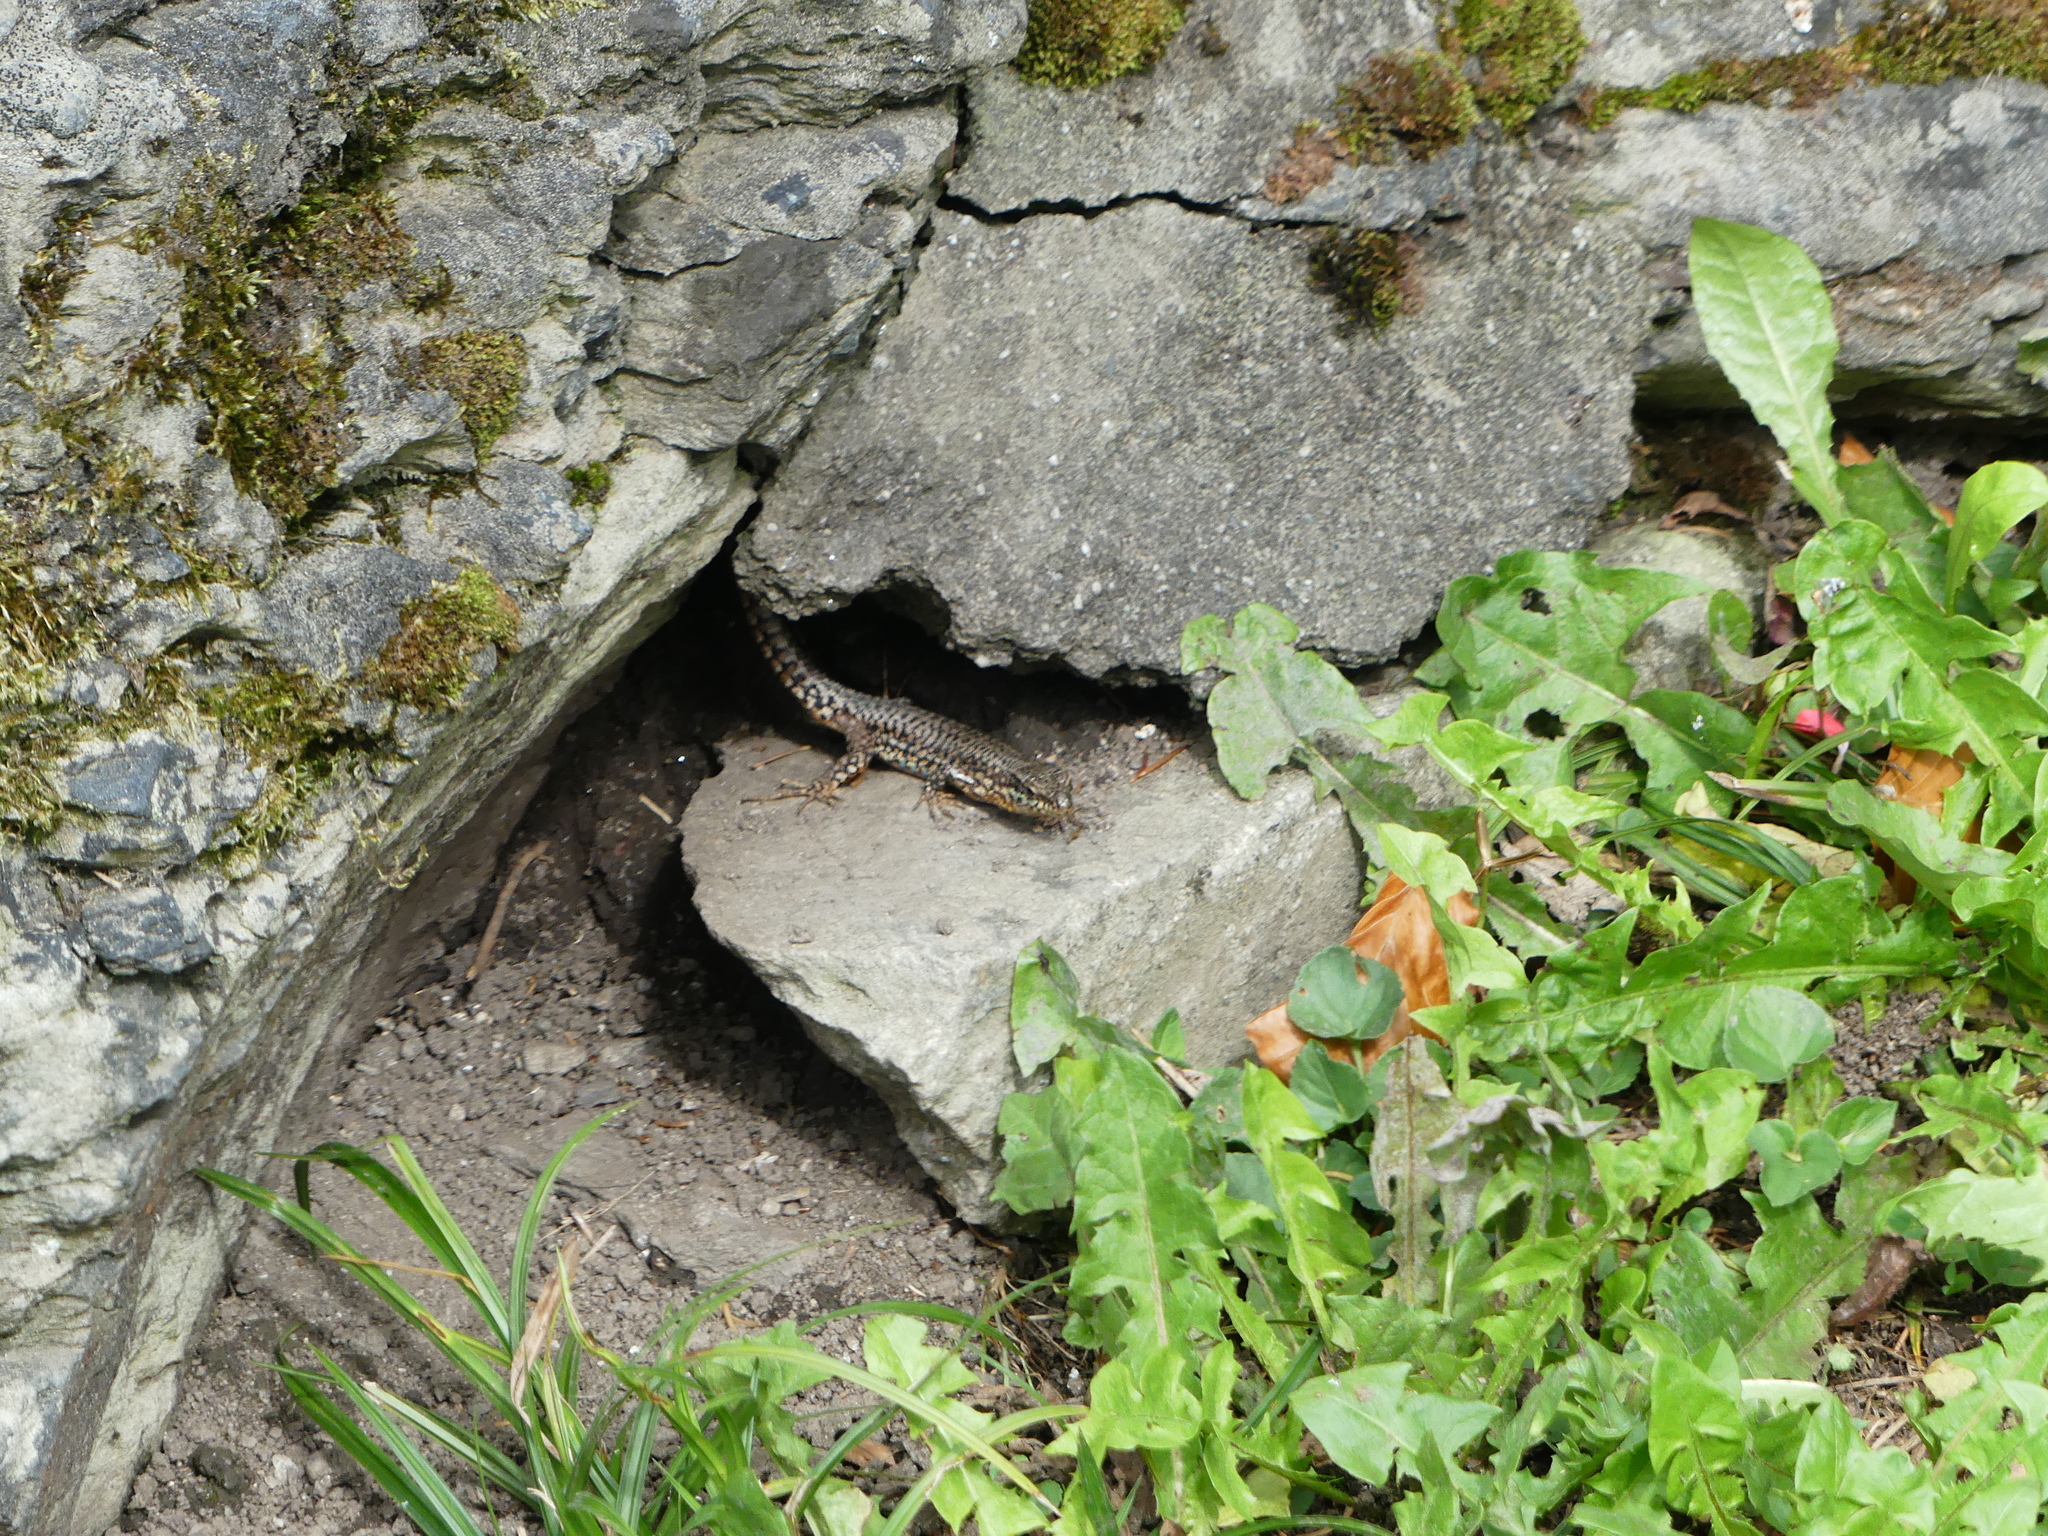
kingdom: Animalia
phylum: Chordata
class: Squamata
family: Lacertidae
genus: Podarcis
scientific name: Podarcis muralis
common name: Common wall lizard
